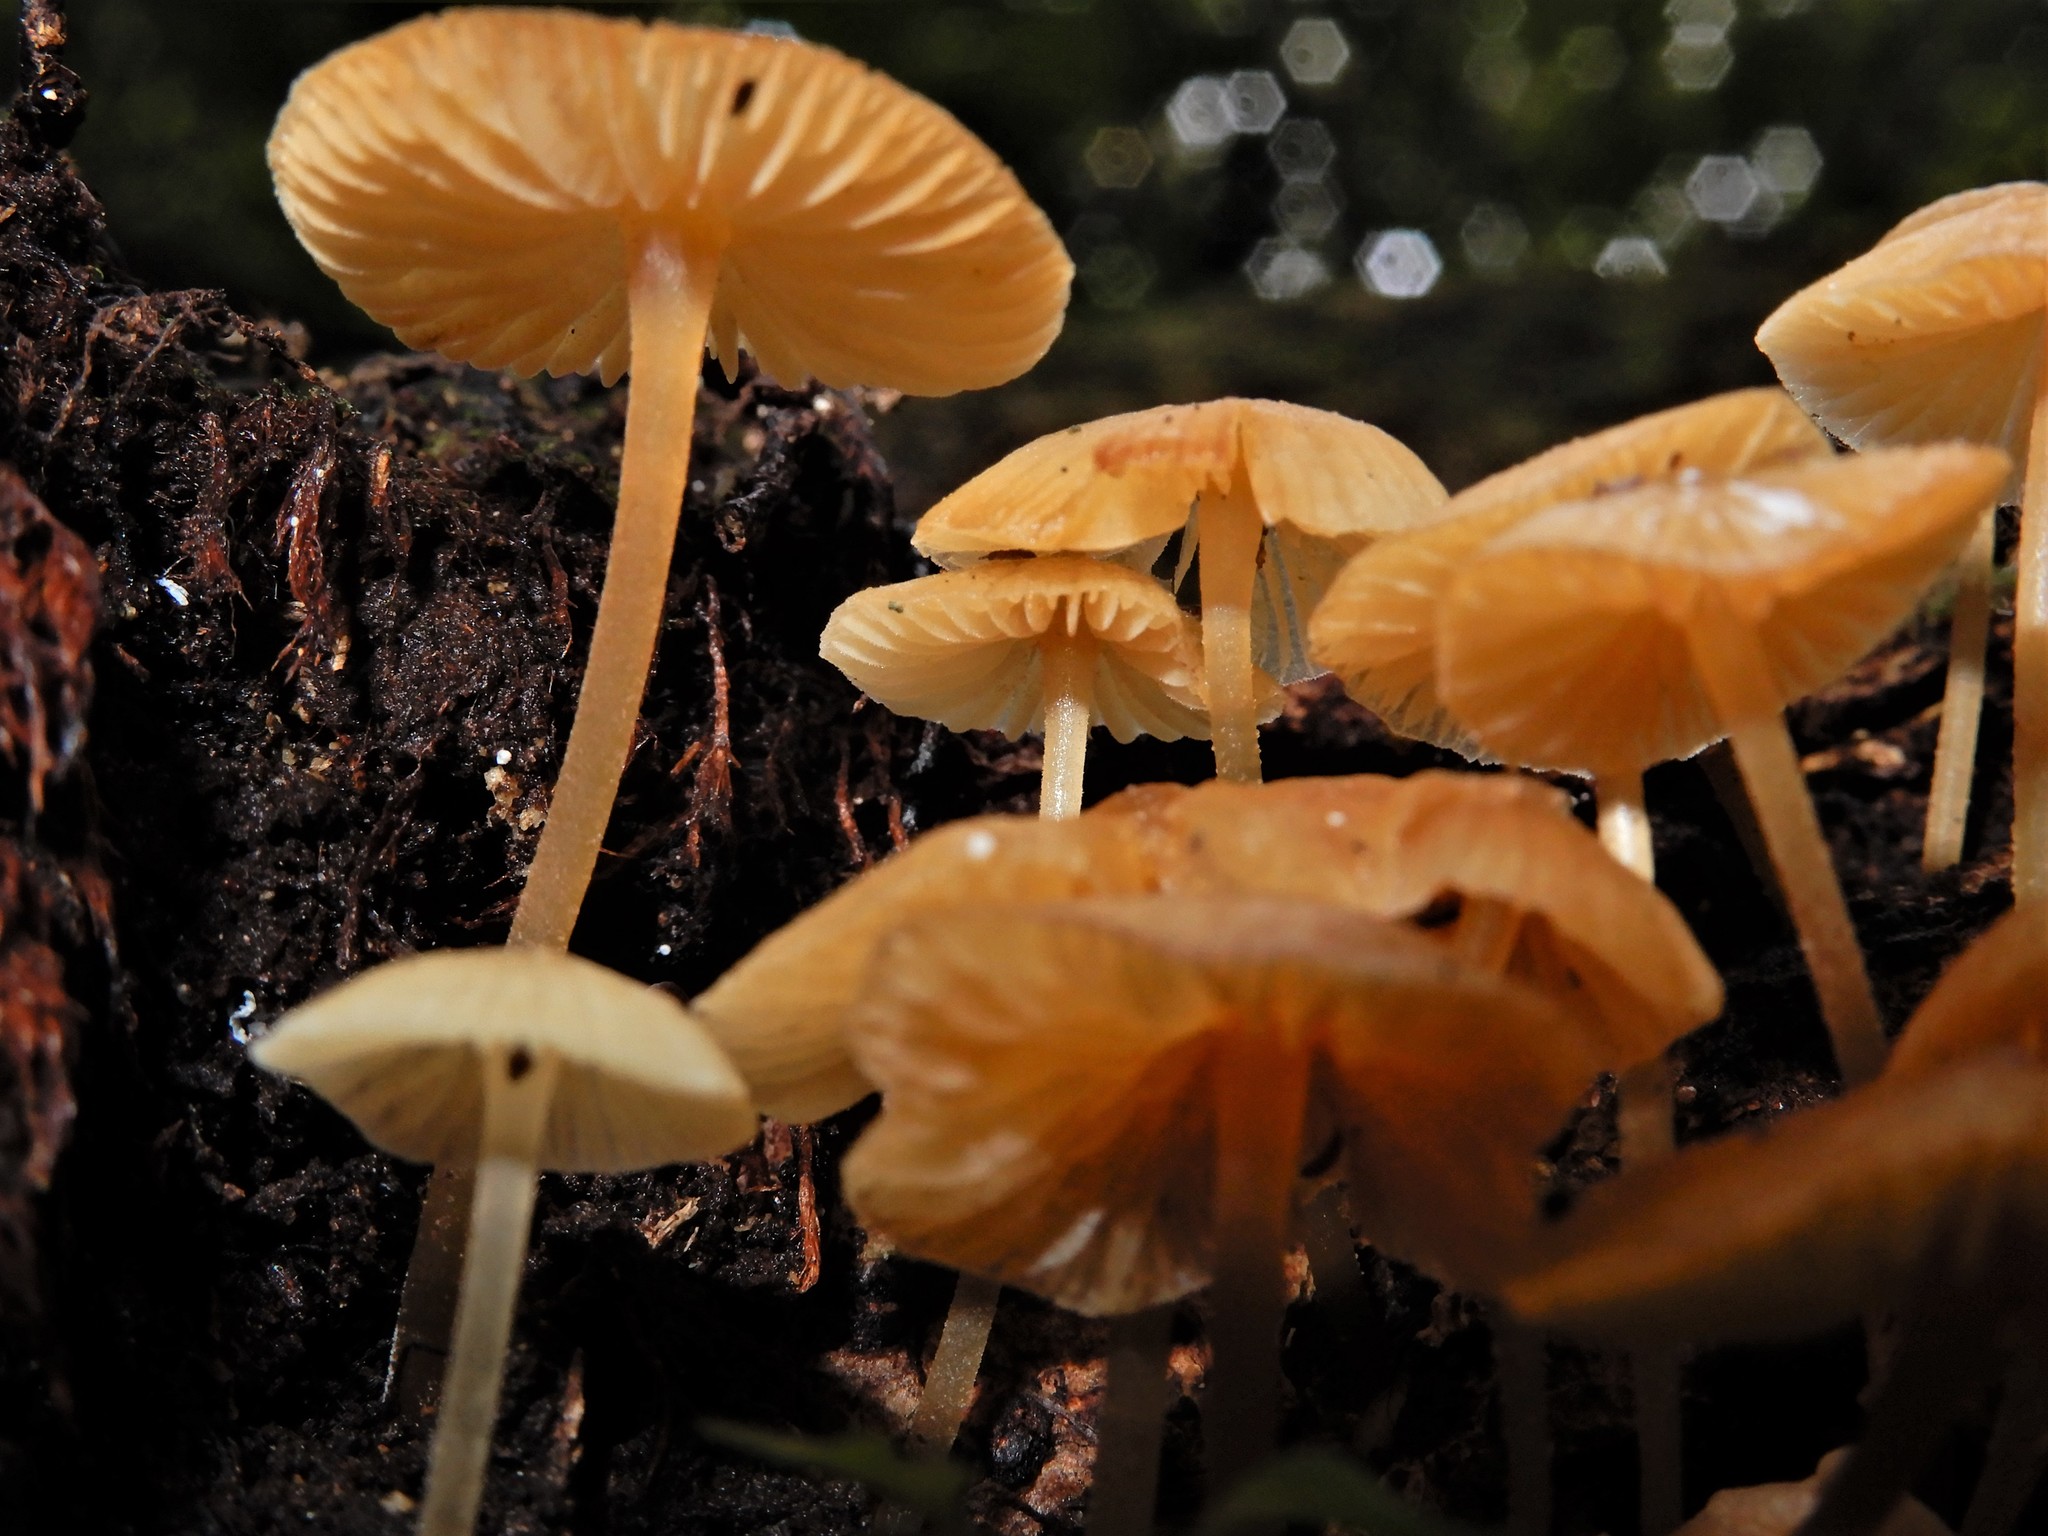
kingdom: Fungi
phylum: Basidiomycota
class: Agaricomycetes
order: Agaricales
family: Tricholomataceae
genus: Omphalina
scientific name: Omphalina wellingtonensis
